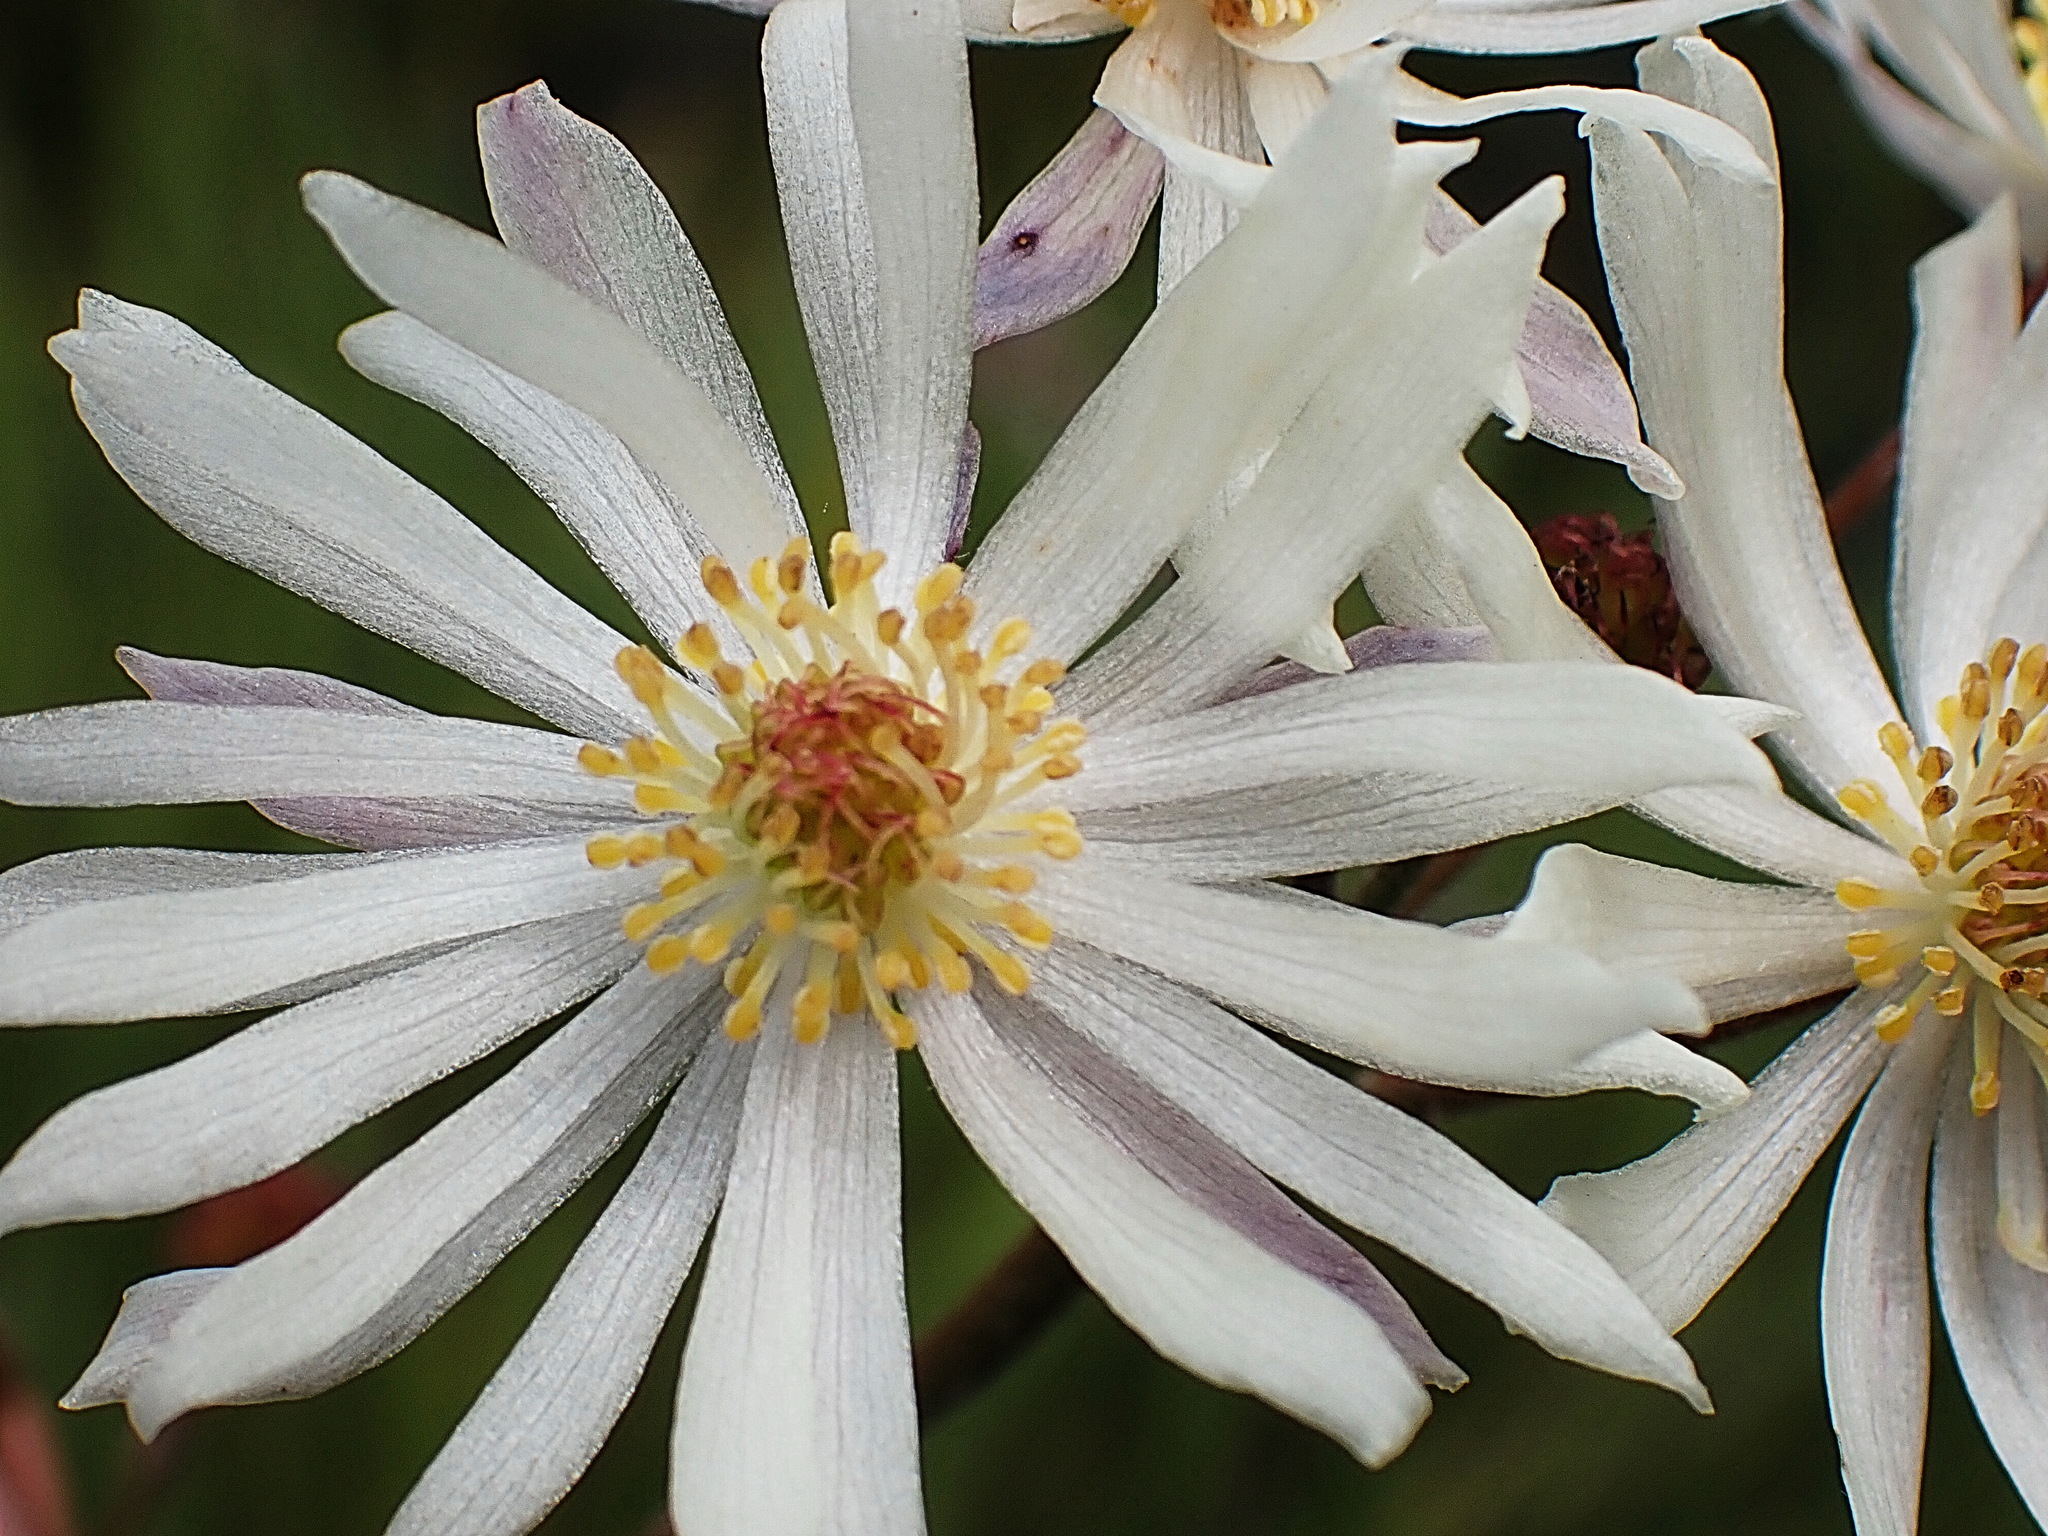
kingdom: Plantae
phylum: Tracheophyta
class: Magnoliopsida
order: Ranunculales
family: Ranunculaceae
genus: Knowltonia
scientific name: Knowltonia filia
